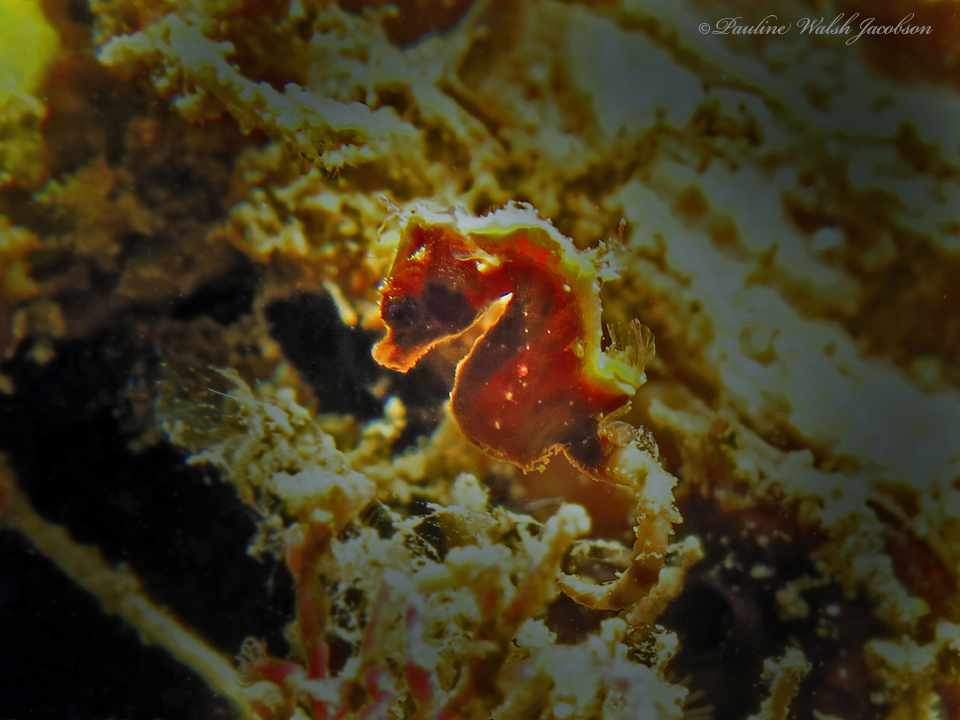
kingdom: Animalia
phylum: Chordata
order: Syngnathiformes
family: Syngnathidae
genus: Hippocampus
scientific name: Hippocampus pontohi
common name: Pontoh`s pygmy seahorse
